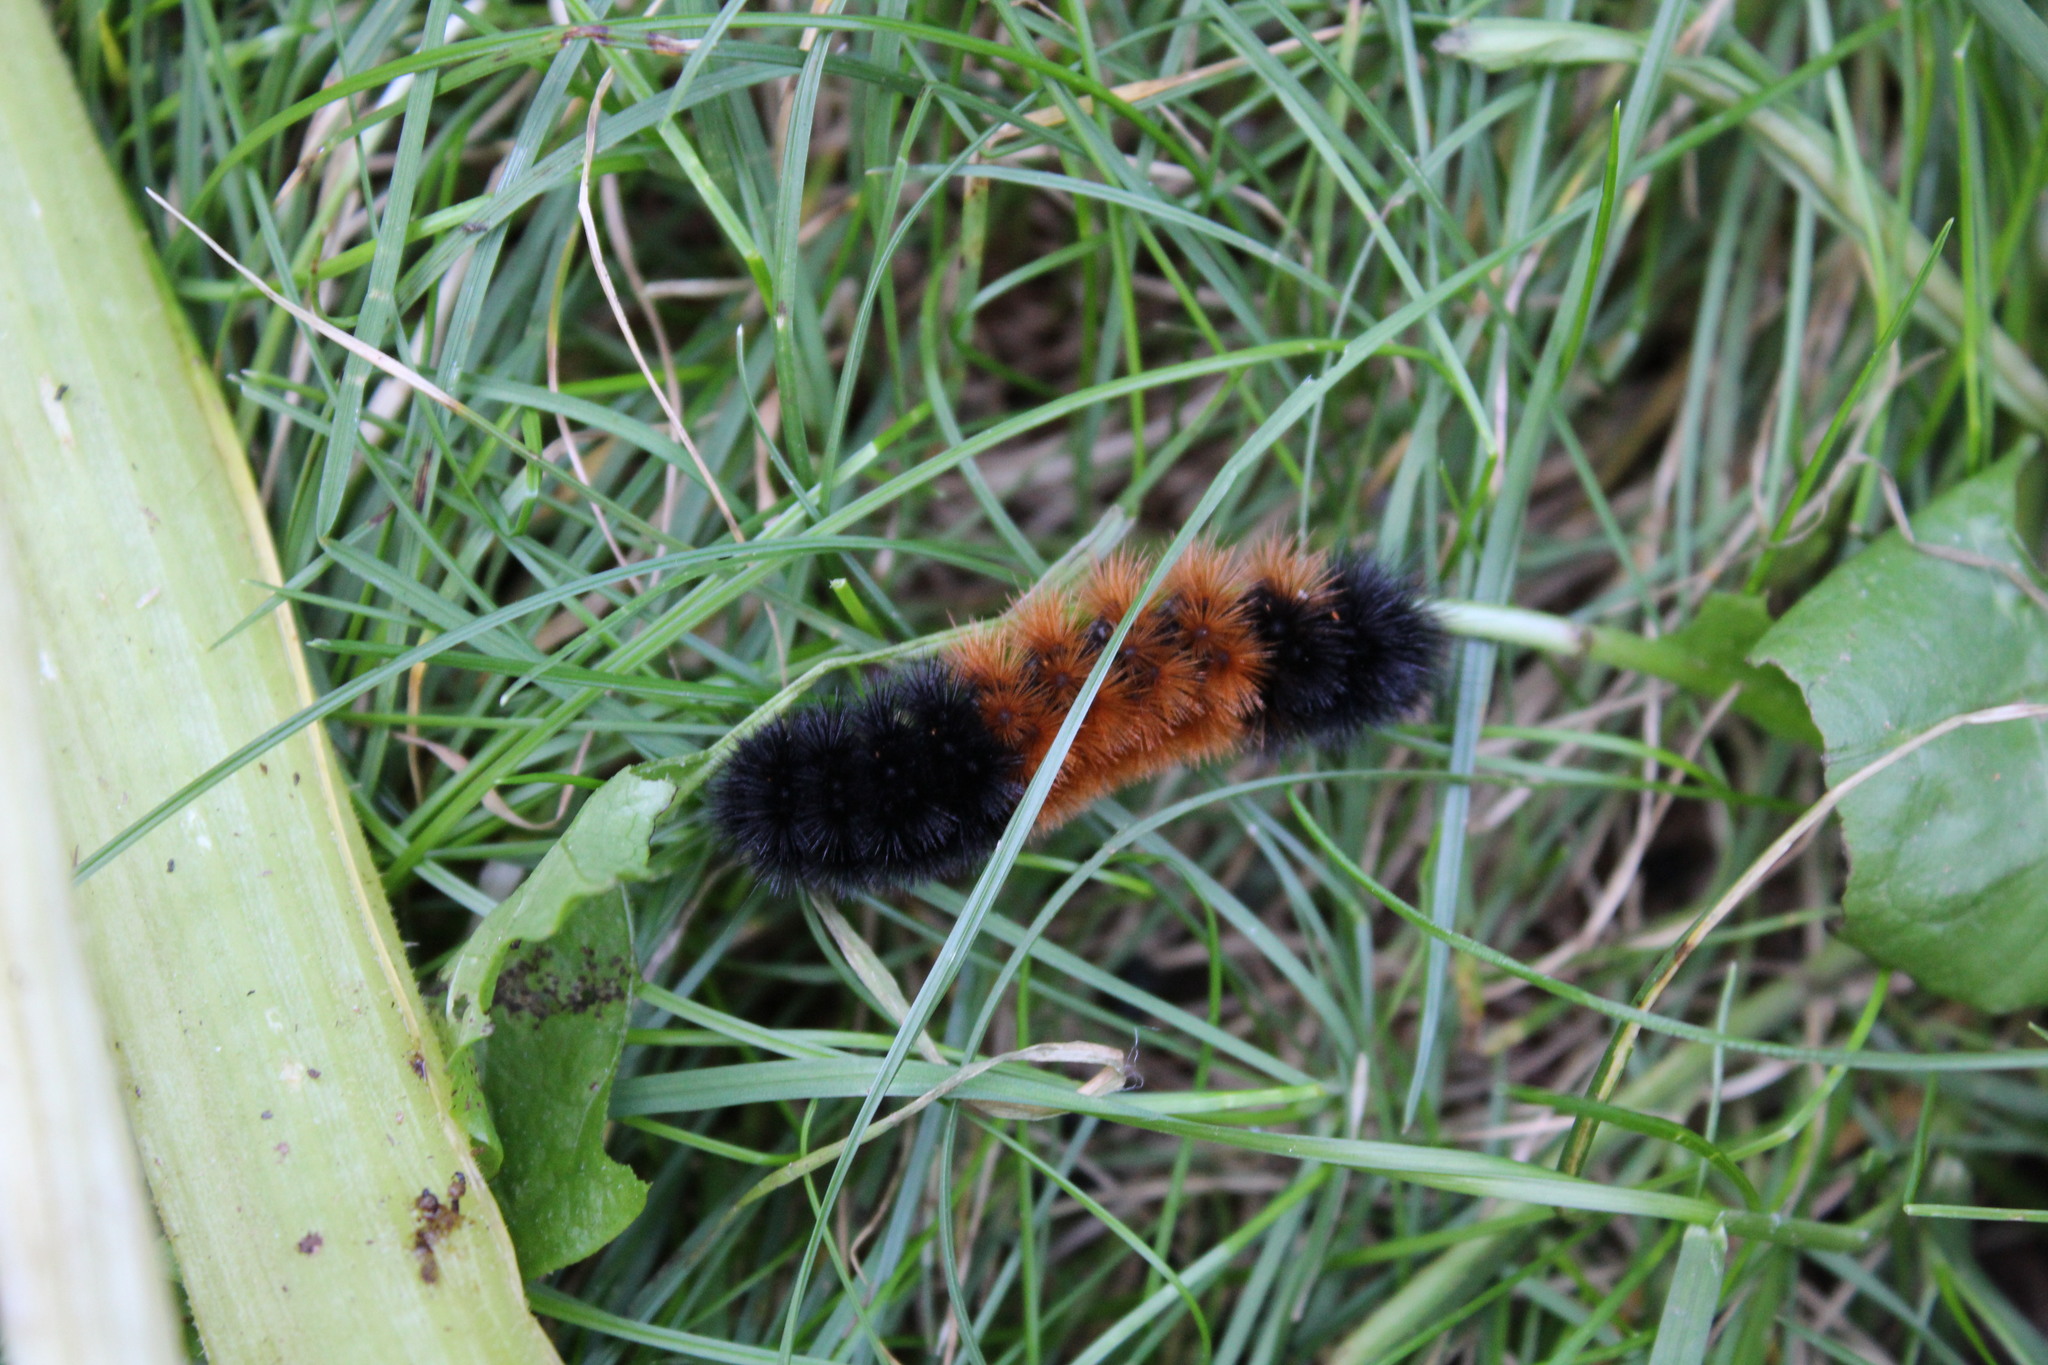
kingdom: Animalia
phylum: Arthropoda
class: Insecta
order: Lepidoptera
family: Erebidae
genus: Pyrrharctia
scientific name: Pyrrharctia isabella
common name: Isabella tiger moth
